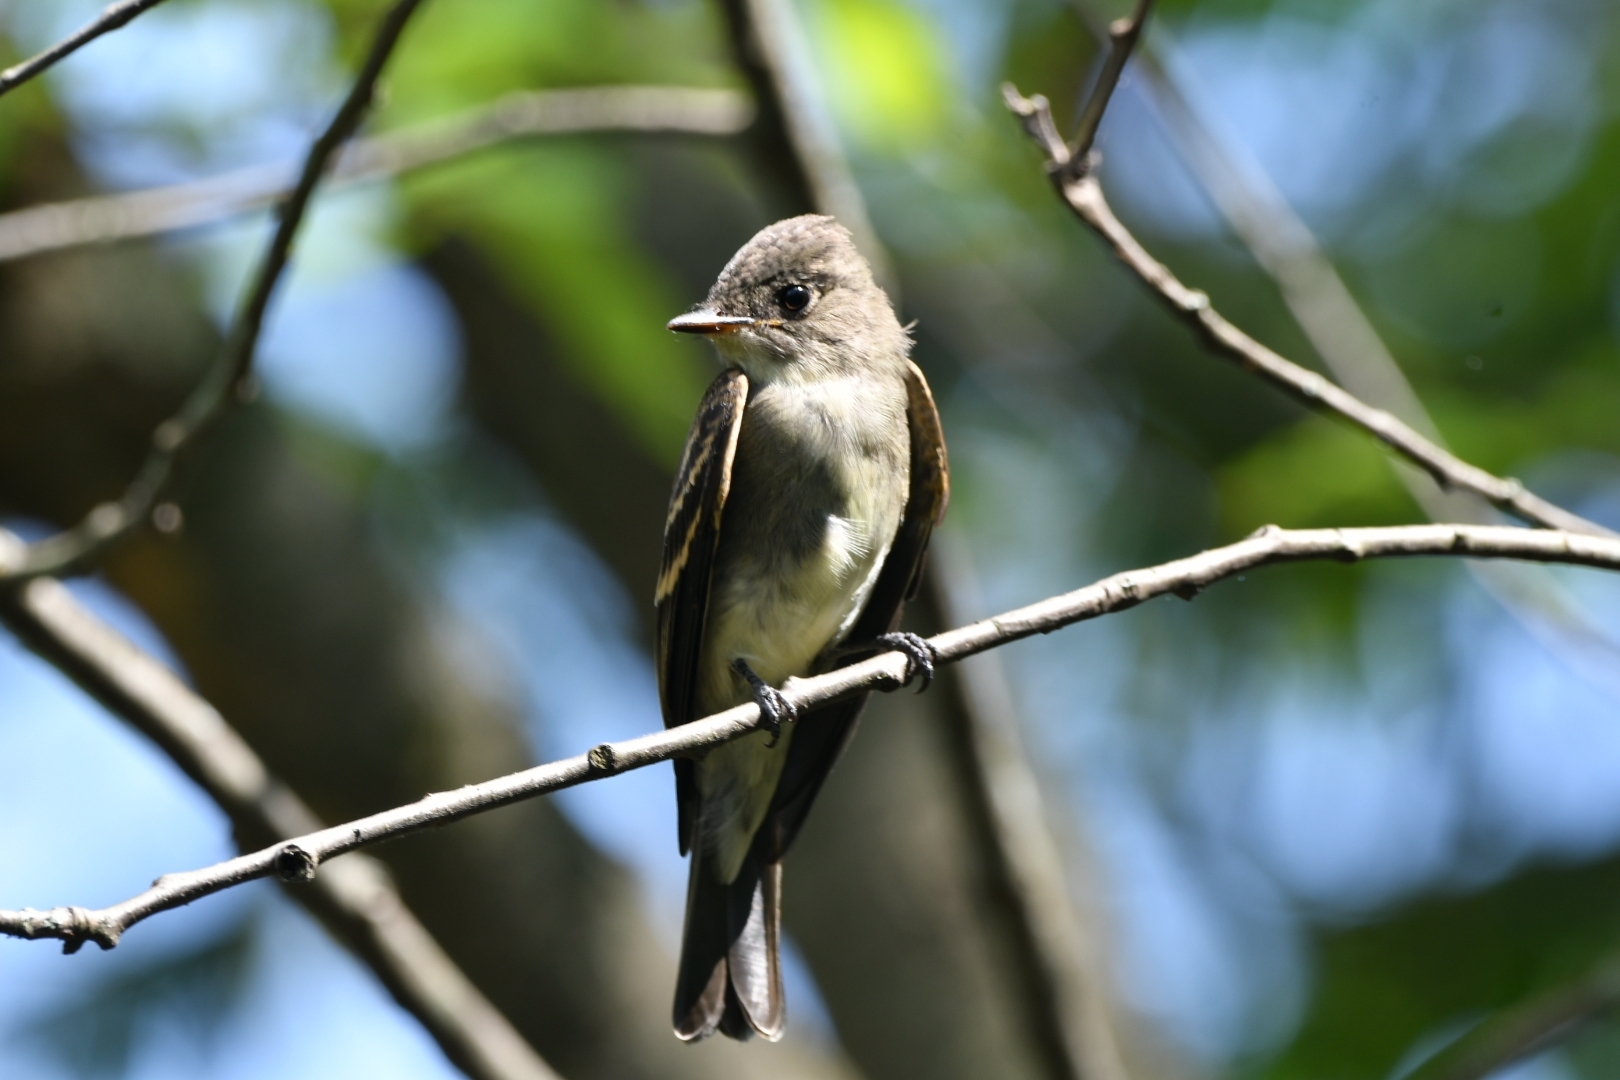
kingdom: Animalia
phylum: Chordata
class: Aves
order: Passeriformes
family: Tyrannidae
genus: Contopus
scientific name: Contopus virens
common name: Eastern wood-pewee
